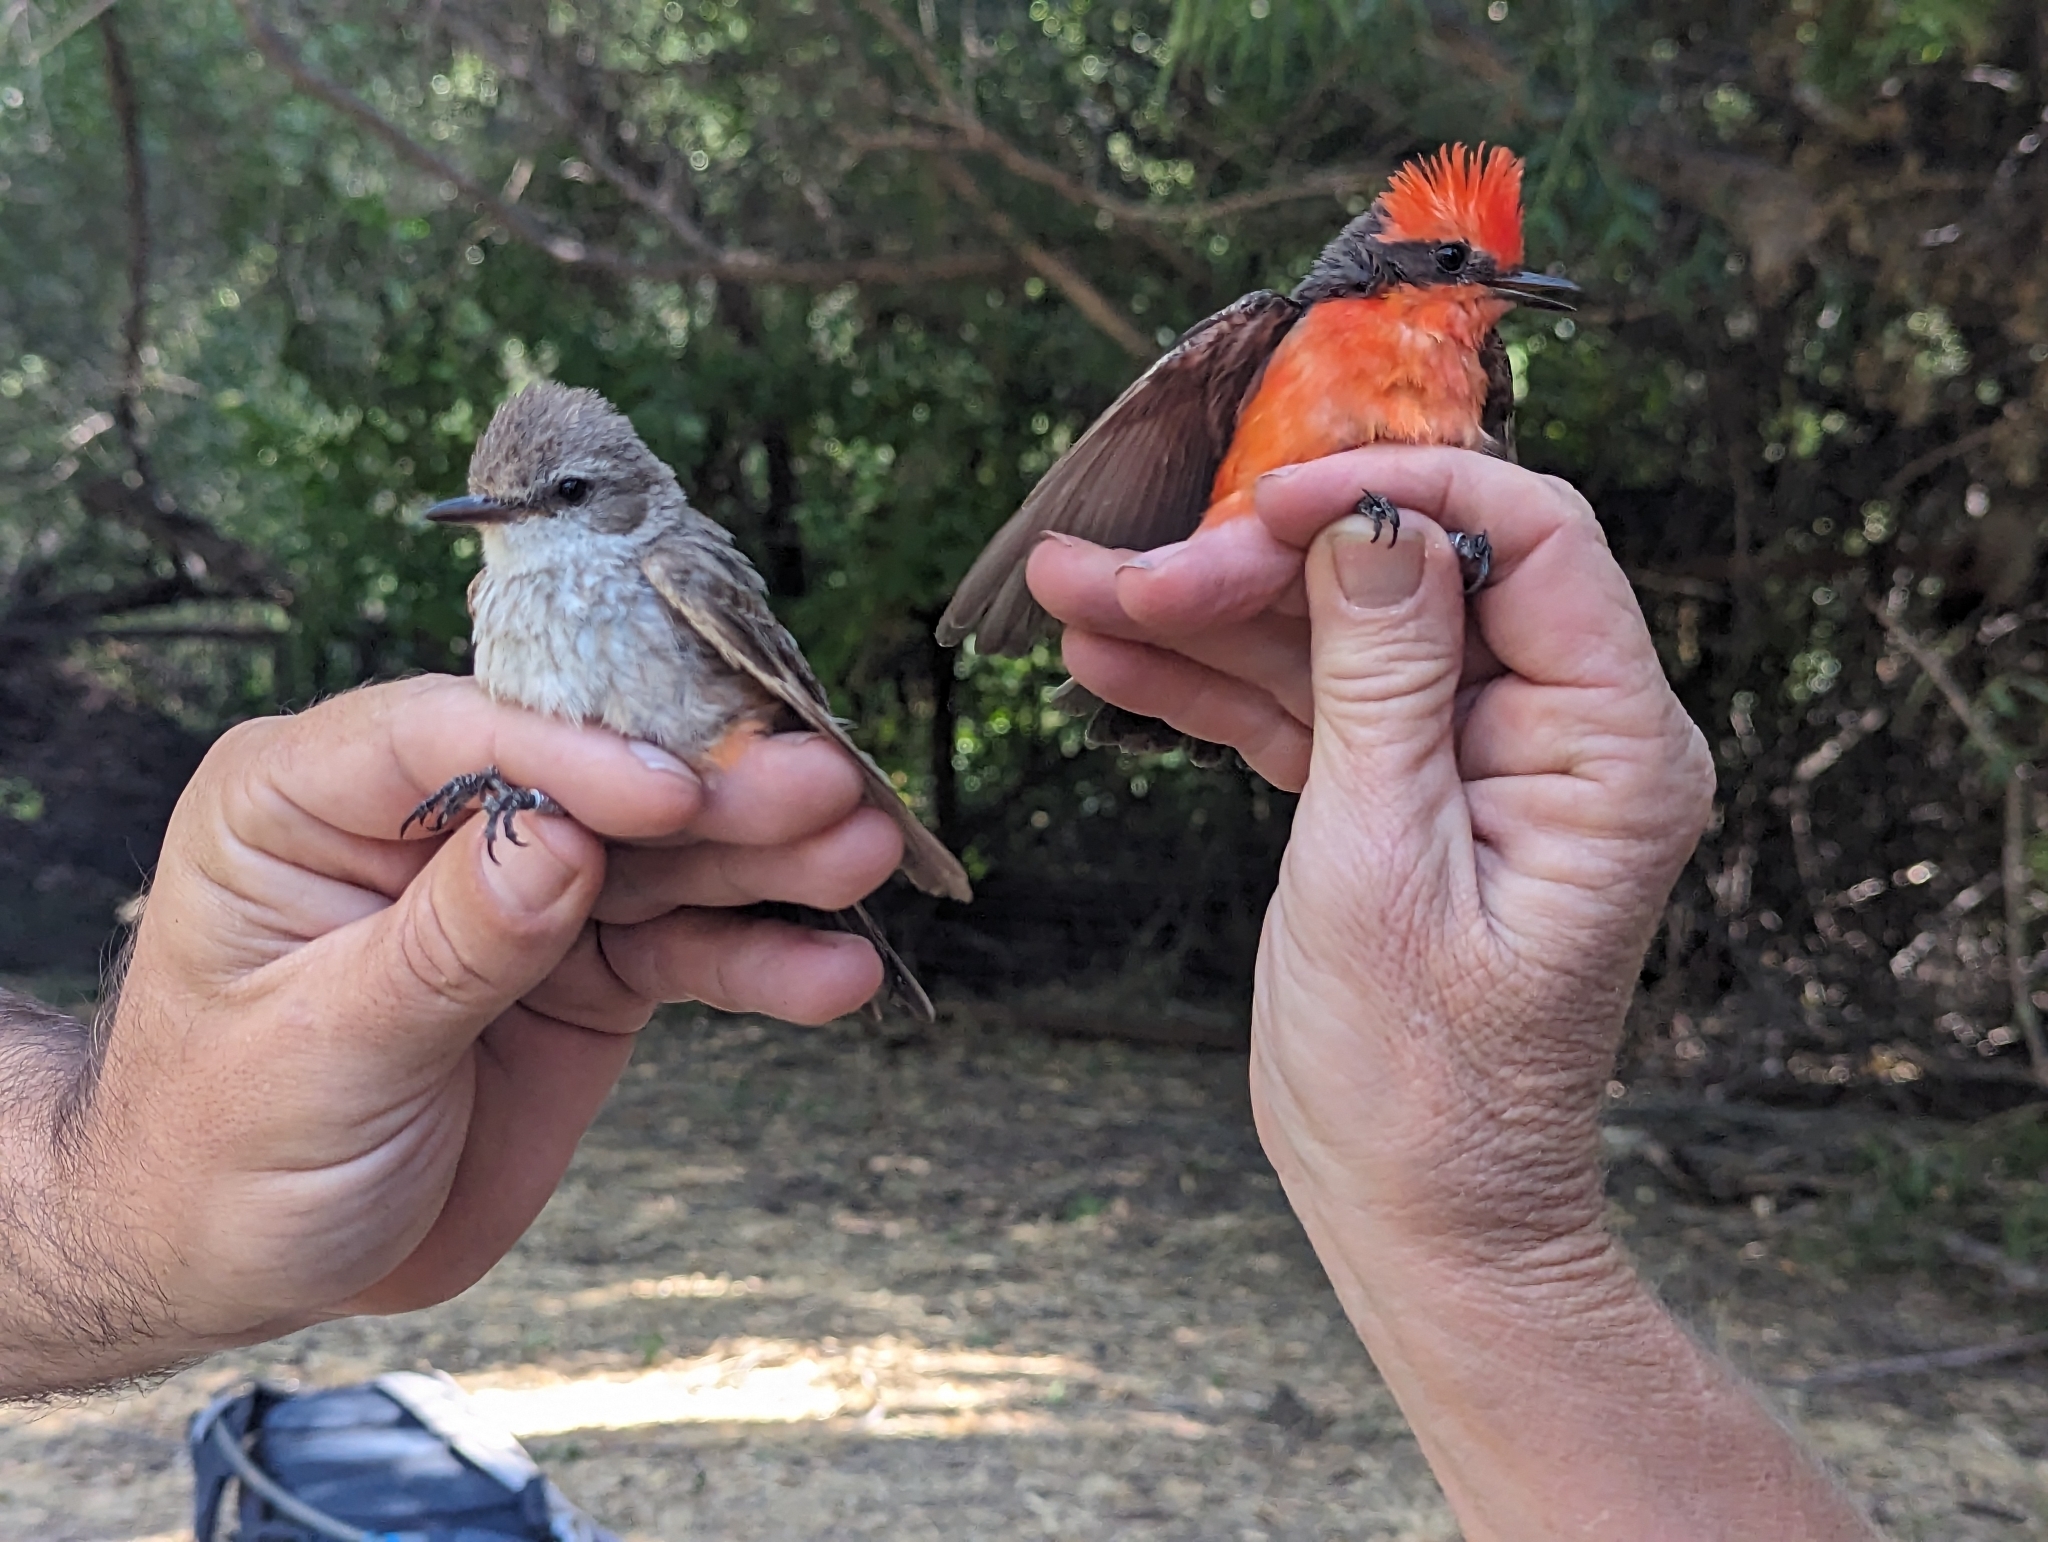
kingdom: Animalia
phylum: Chordata
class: Aves
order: Passeriformes
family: Tyrannidae
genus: Pyrocephalus
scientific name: Pyrocephalus rubinus
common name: Vermilion flycatcher
